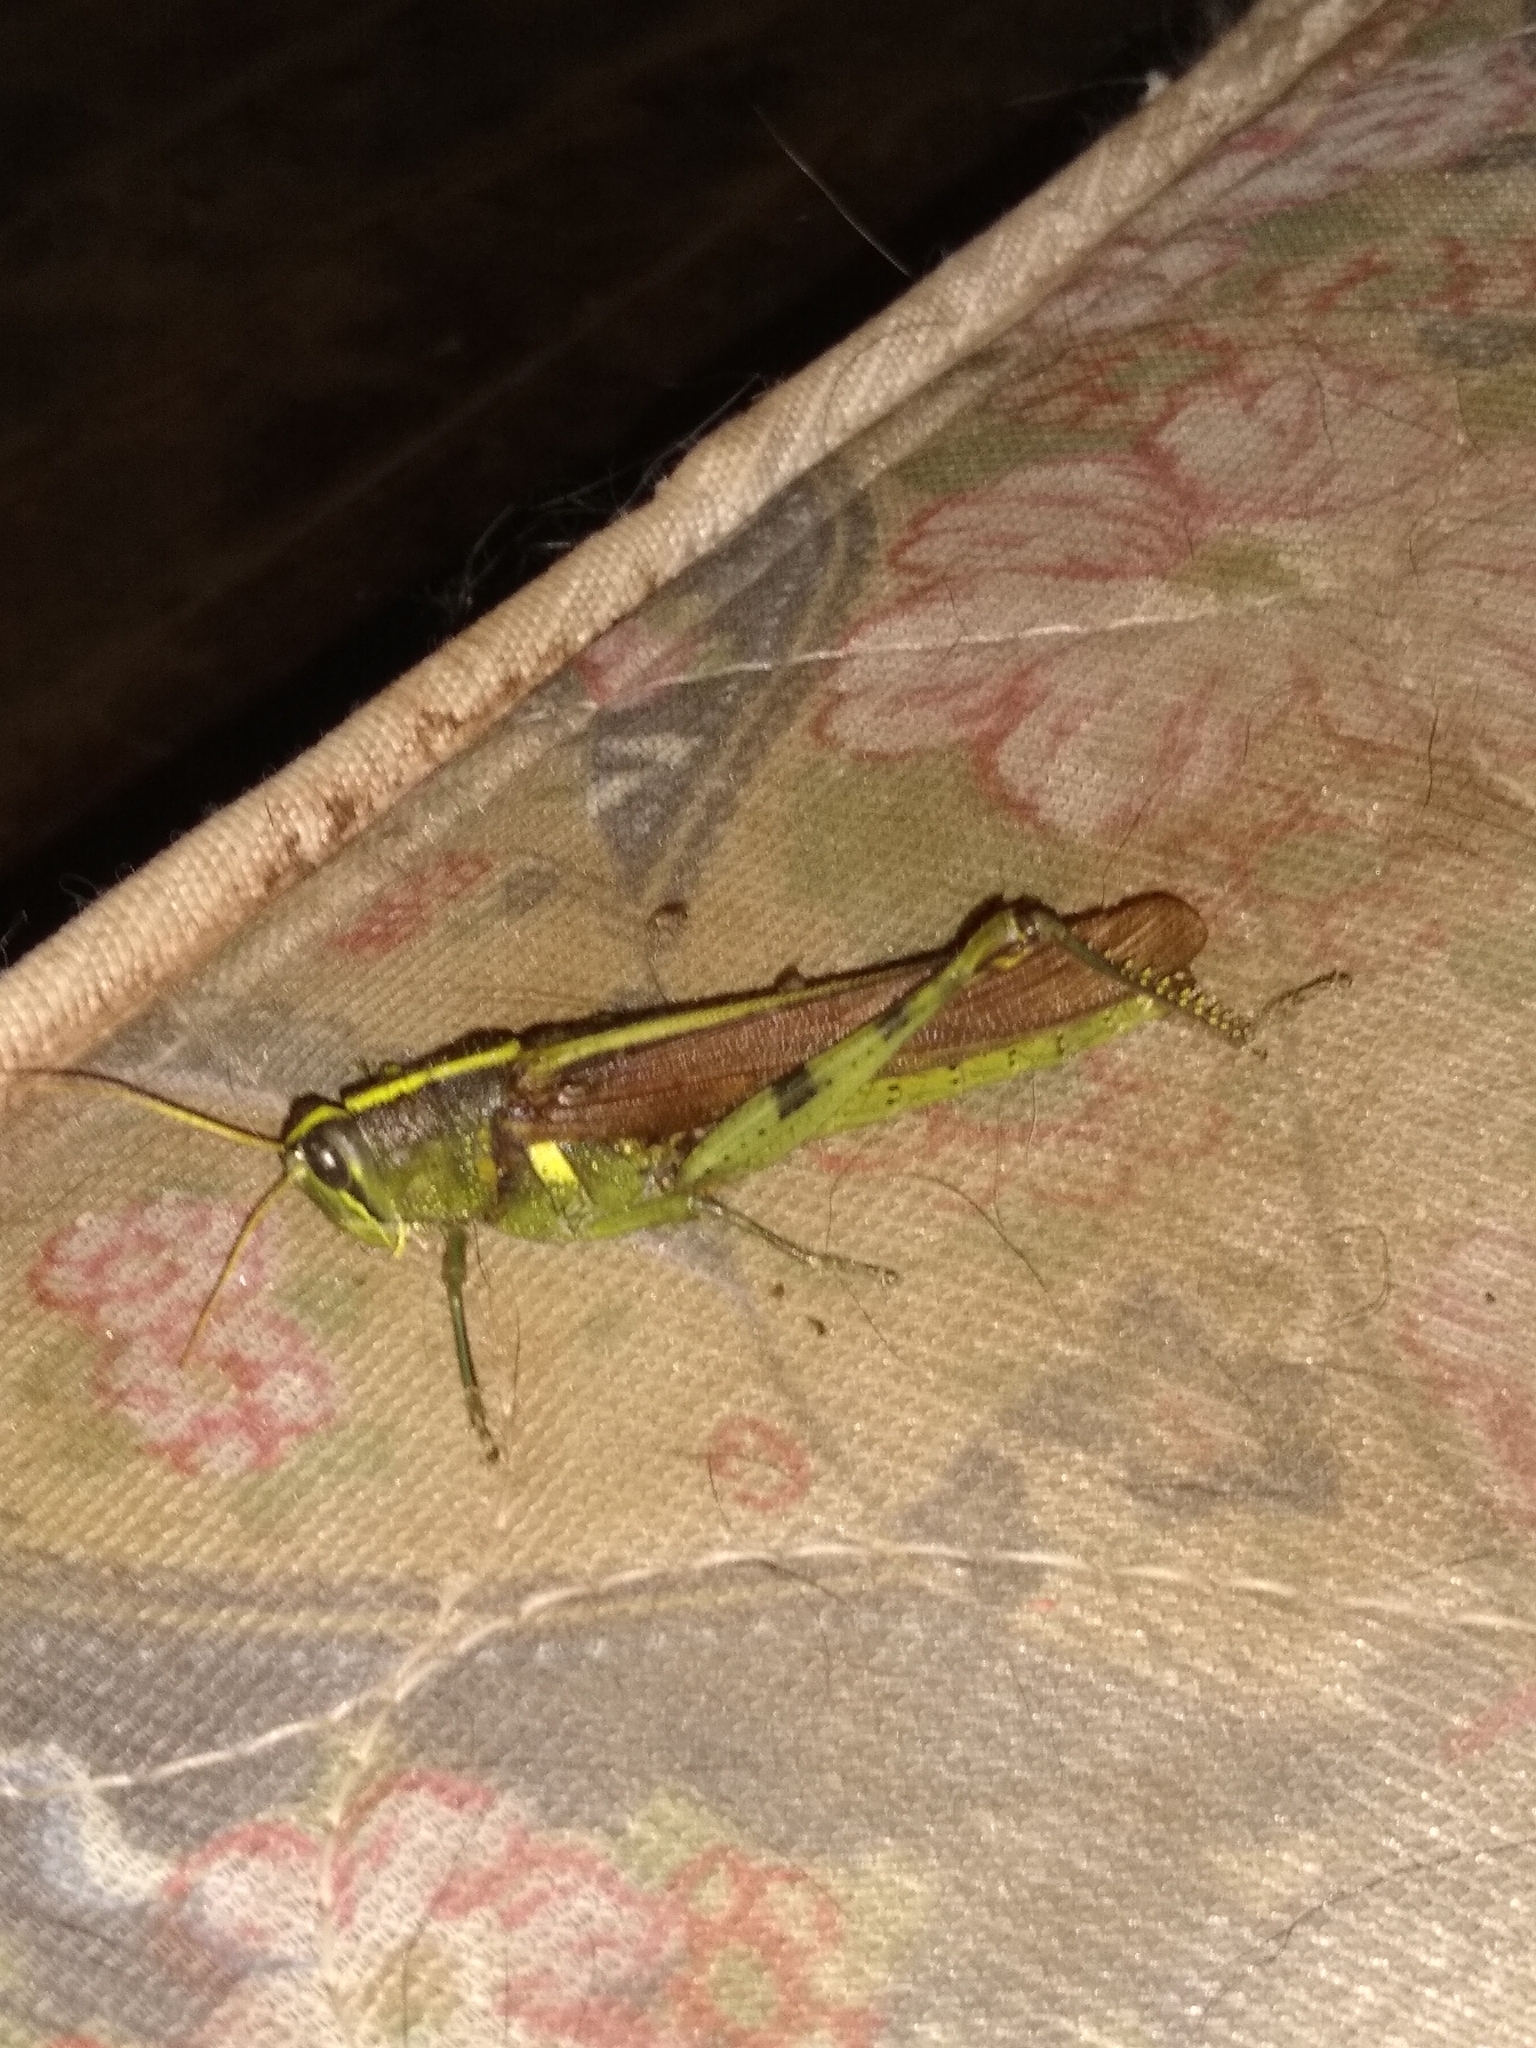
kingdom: Animalia
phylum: Arthropoda
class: Insecta
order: Orthoptera
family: Acrididae
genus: Schistocerca
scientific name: Schistocerca obscura
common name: Obscure bird grasshopper
